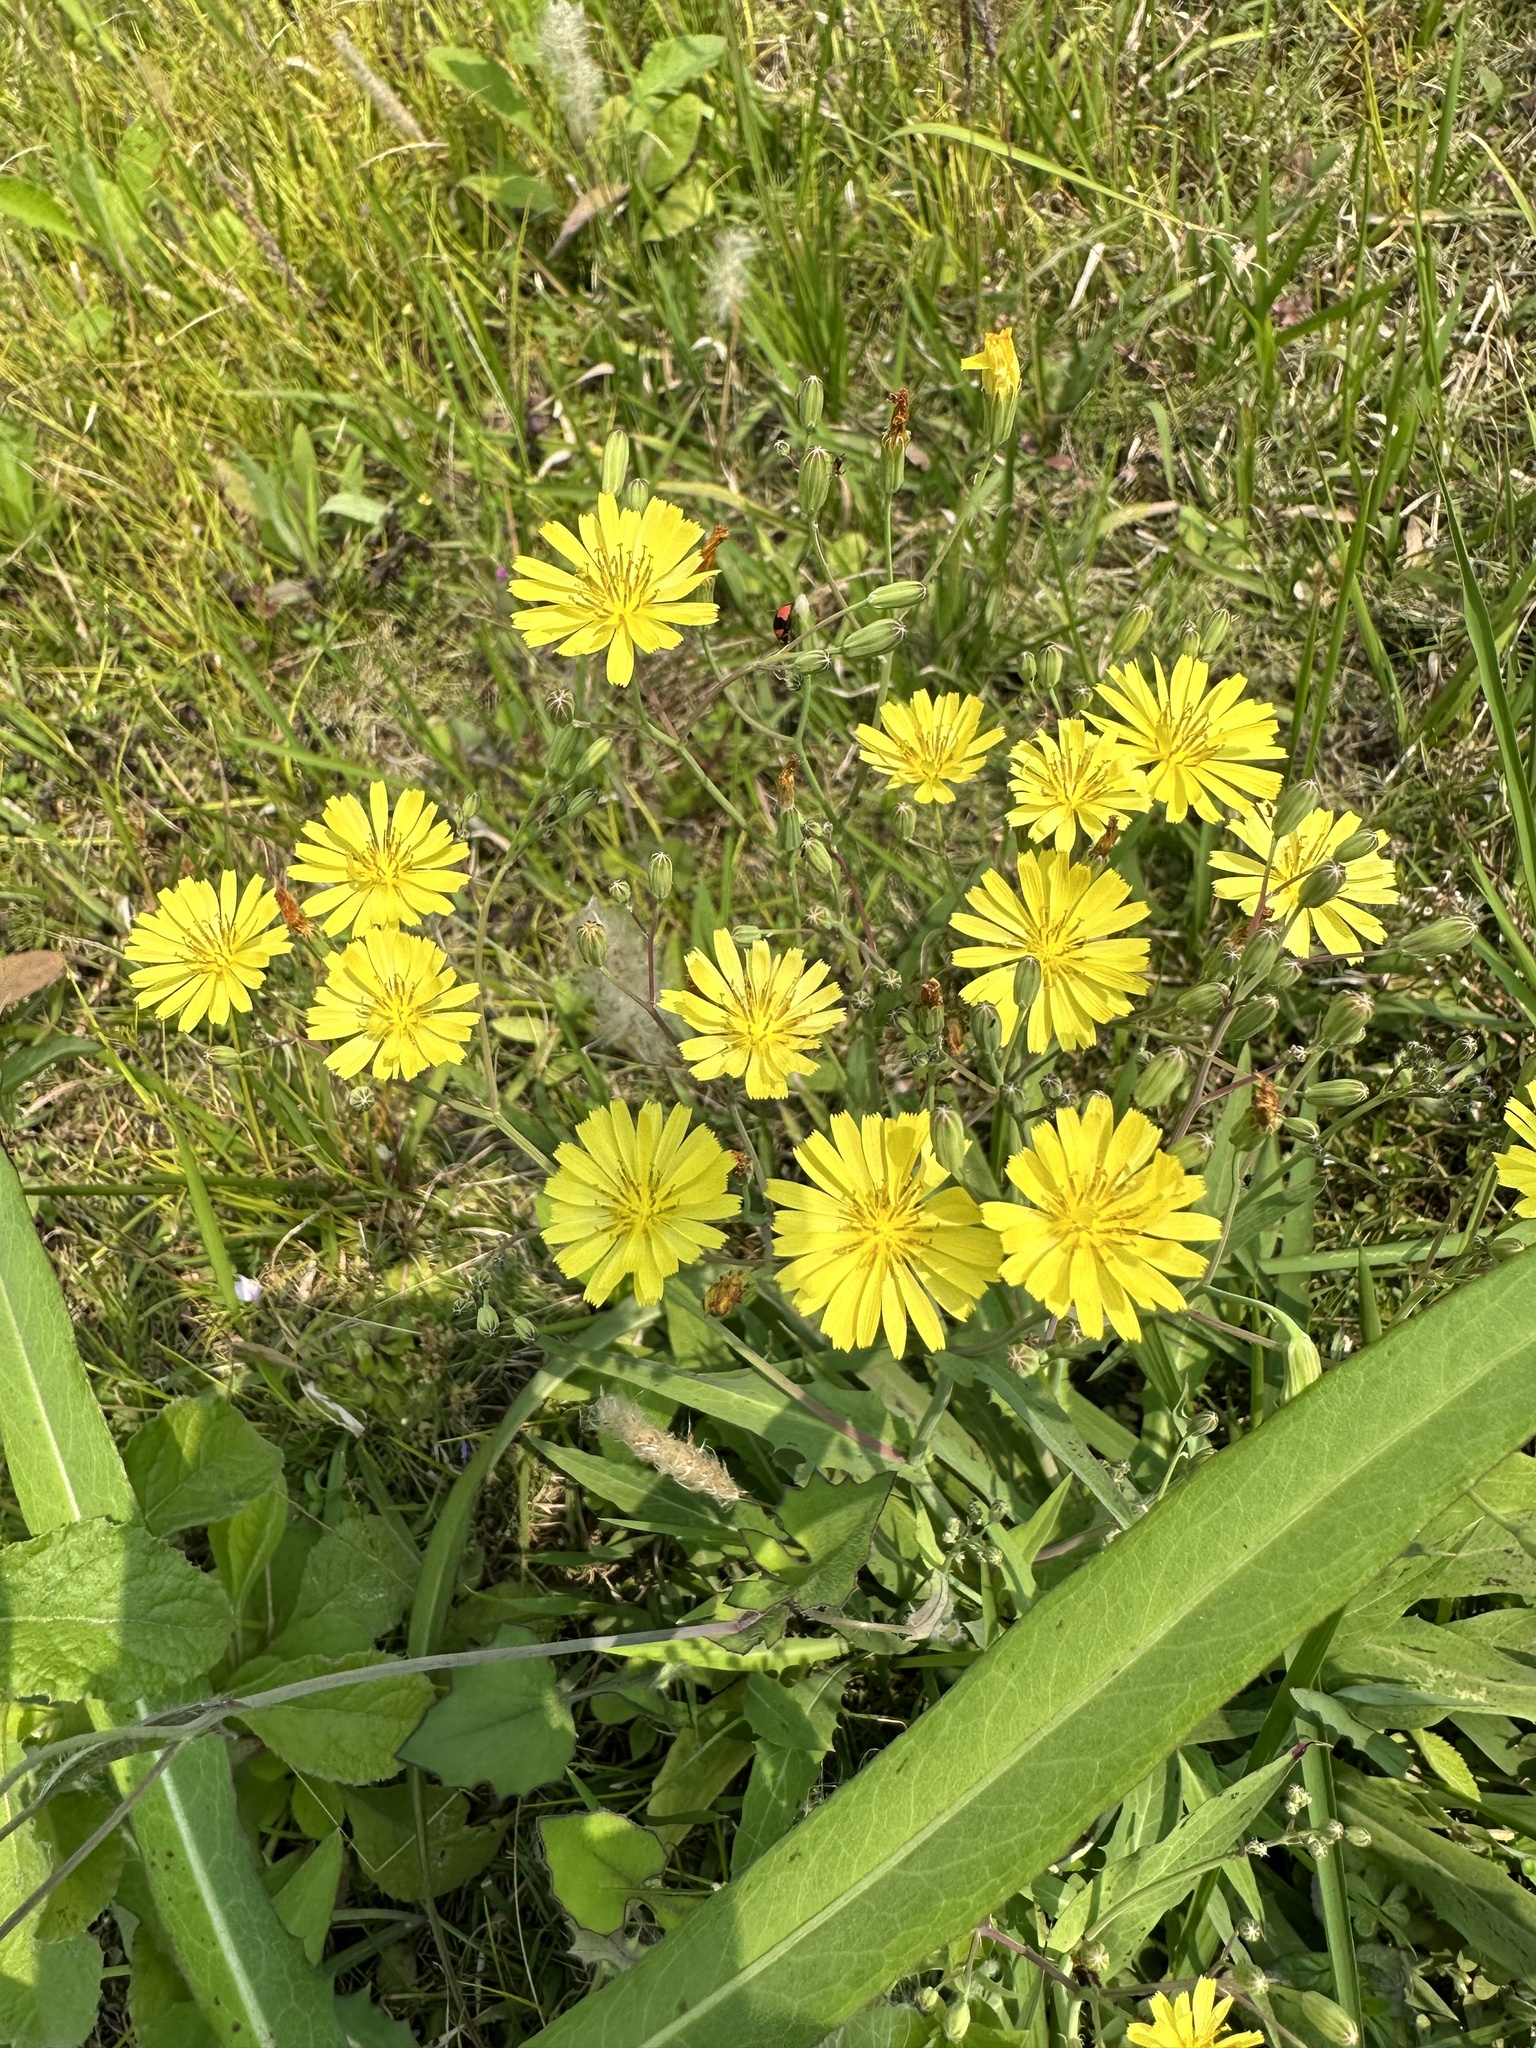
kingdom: Plantae
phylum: Tracheophyta
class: Magnoliopsida
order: Asterales
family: Asteraceae
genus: Ixeris
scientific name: Ixeris chinensis
